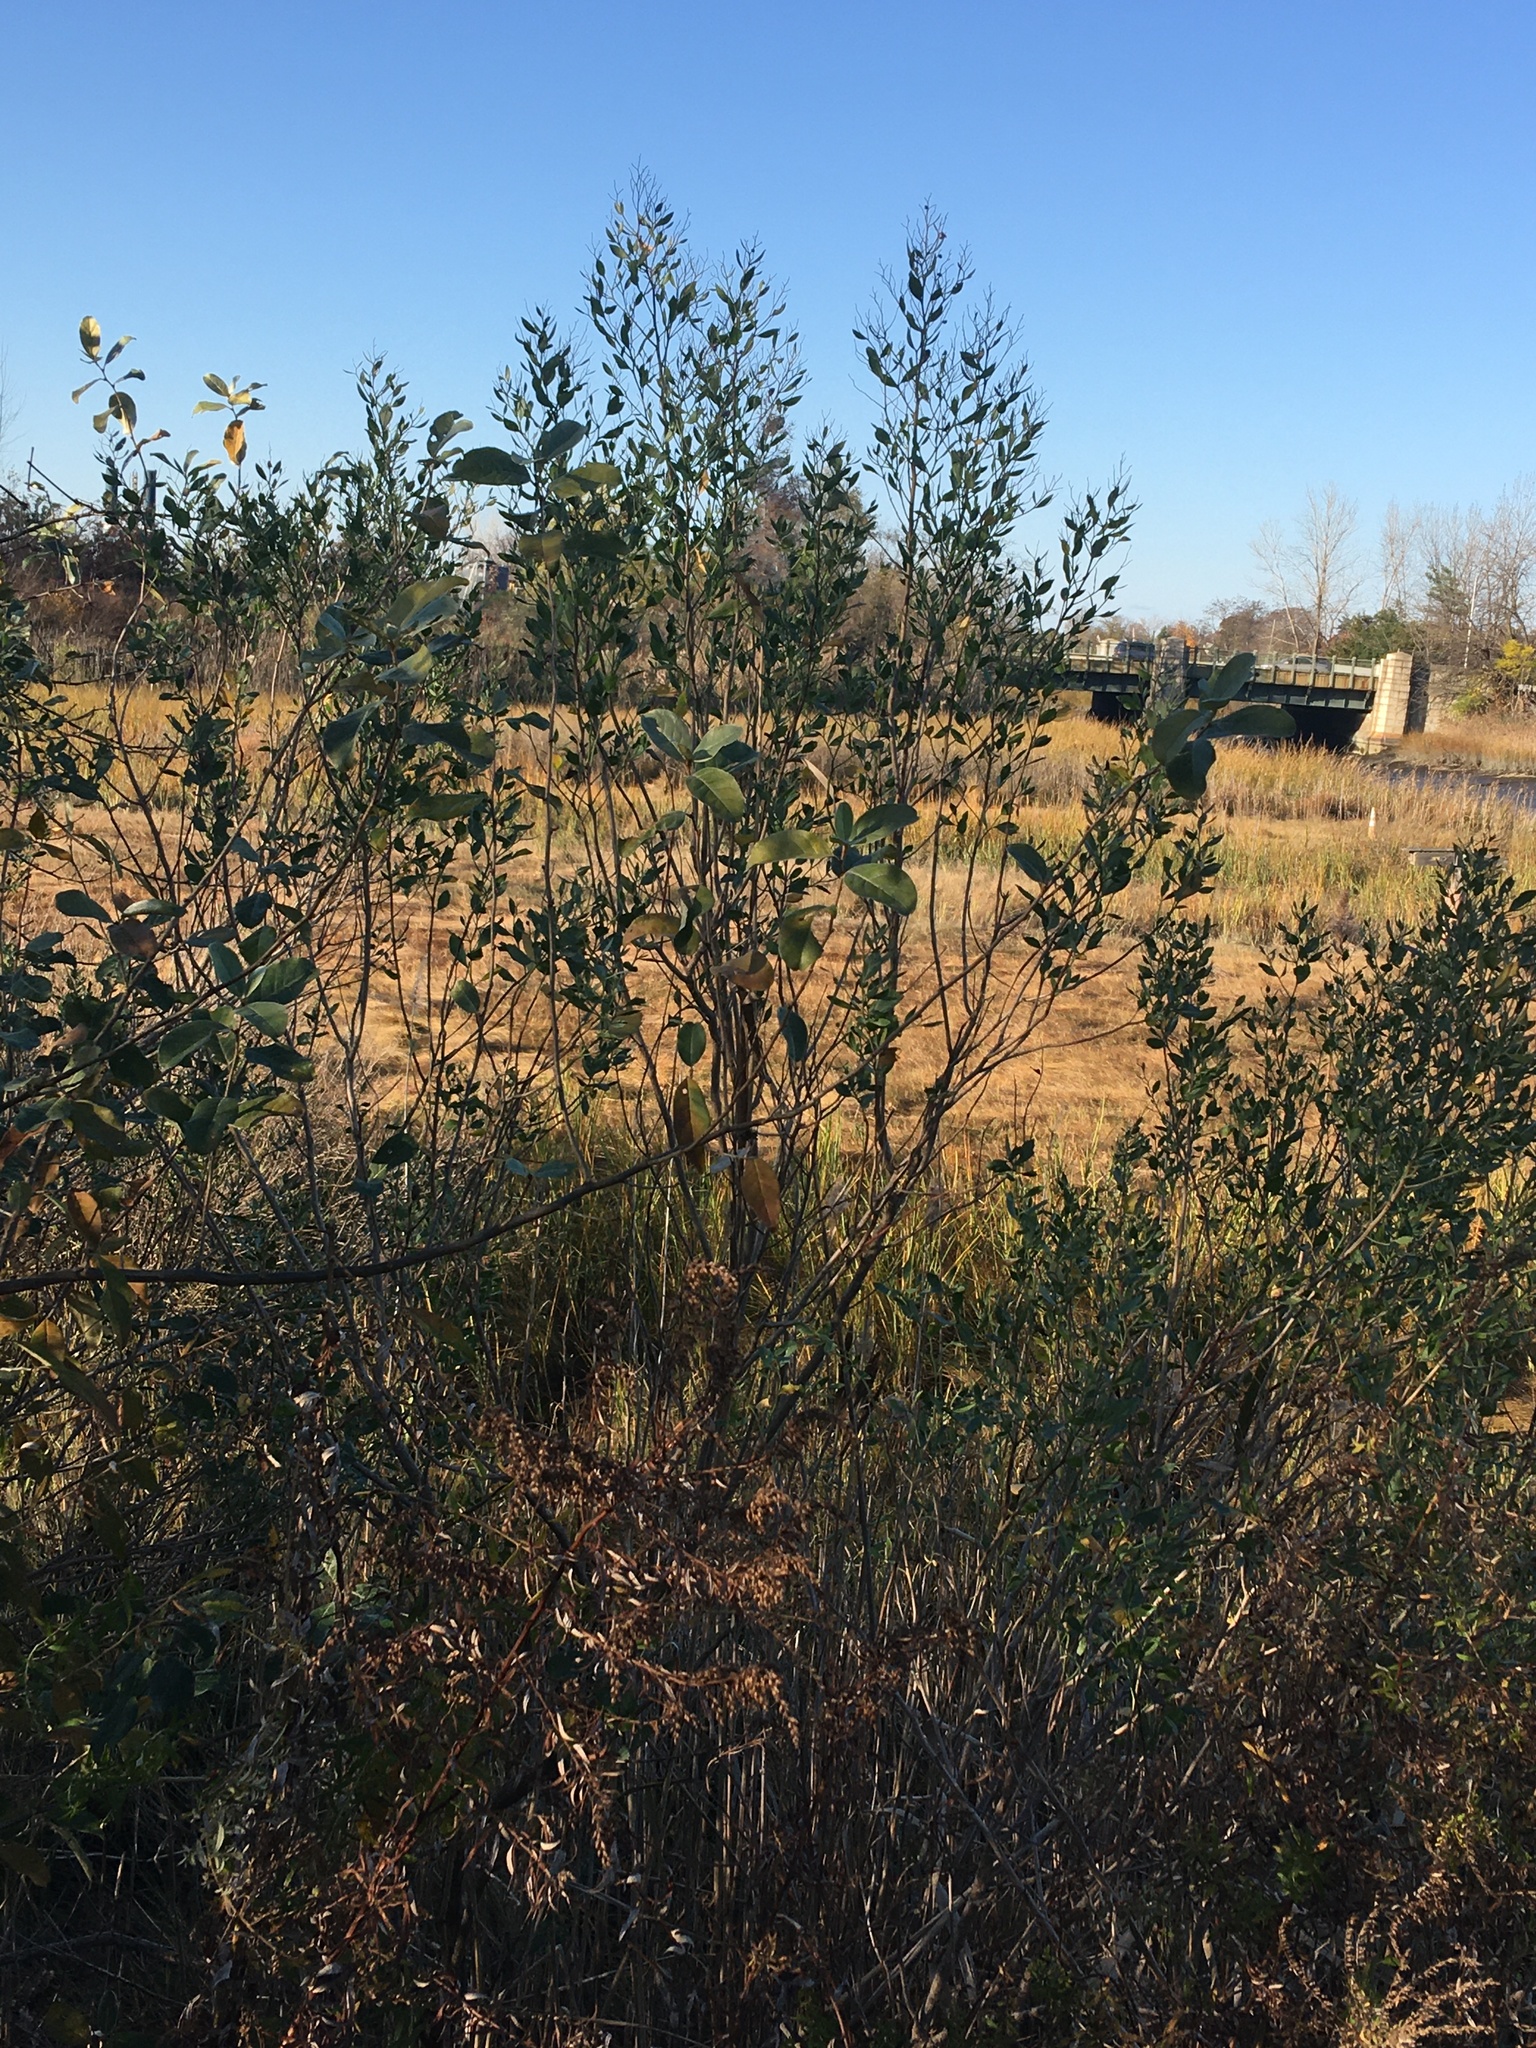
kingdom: Plantae
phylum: Tracheophyta
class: Magnoliopsida
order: Asterales
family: Asteraceae
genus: Baccharis
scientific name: Baccharis halimifolia
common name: Eastern baccharis
